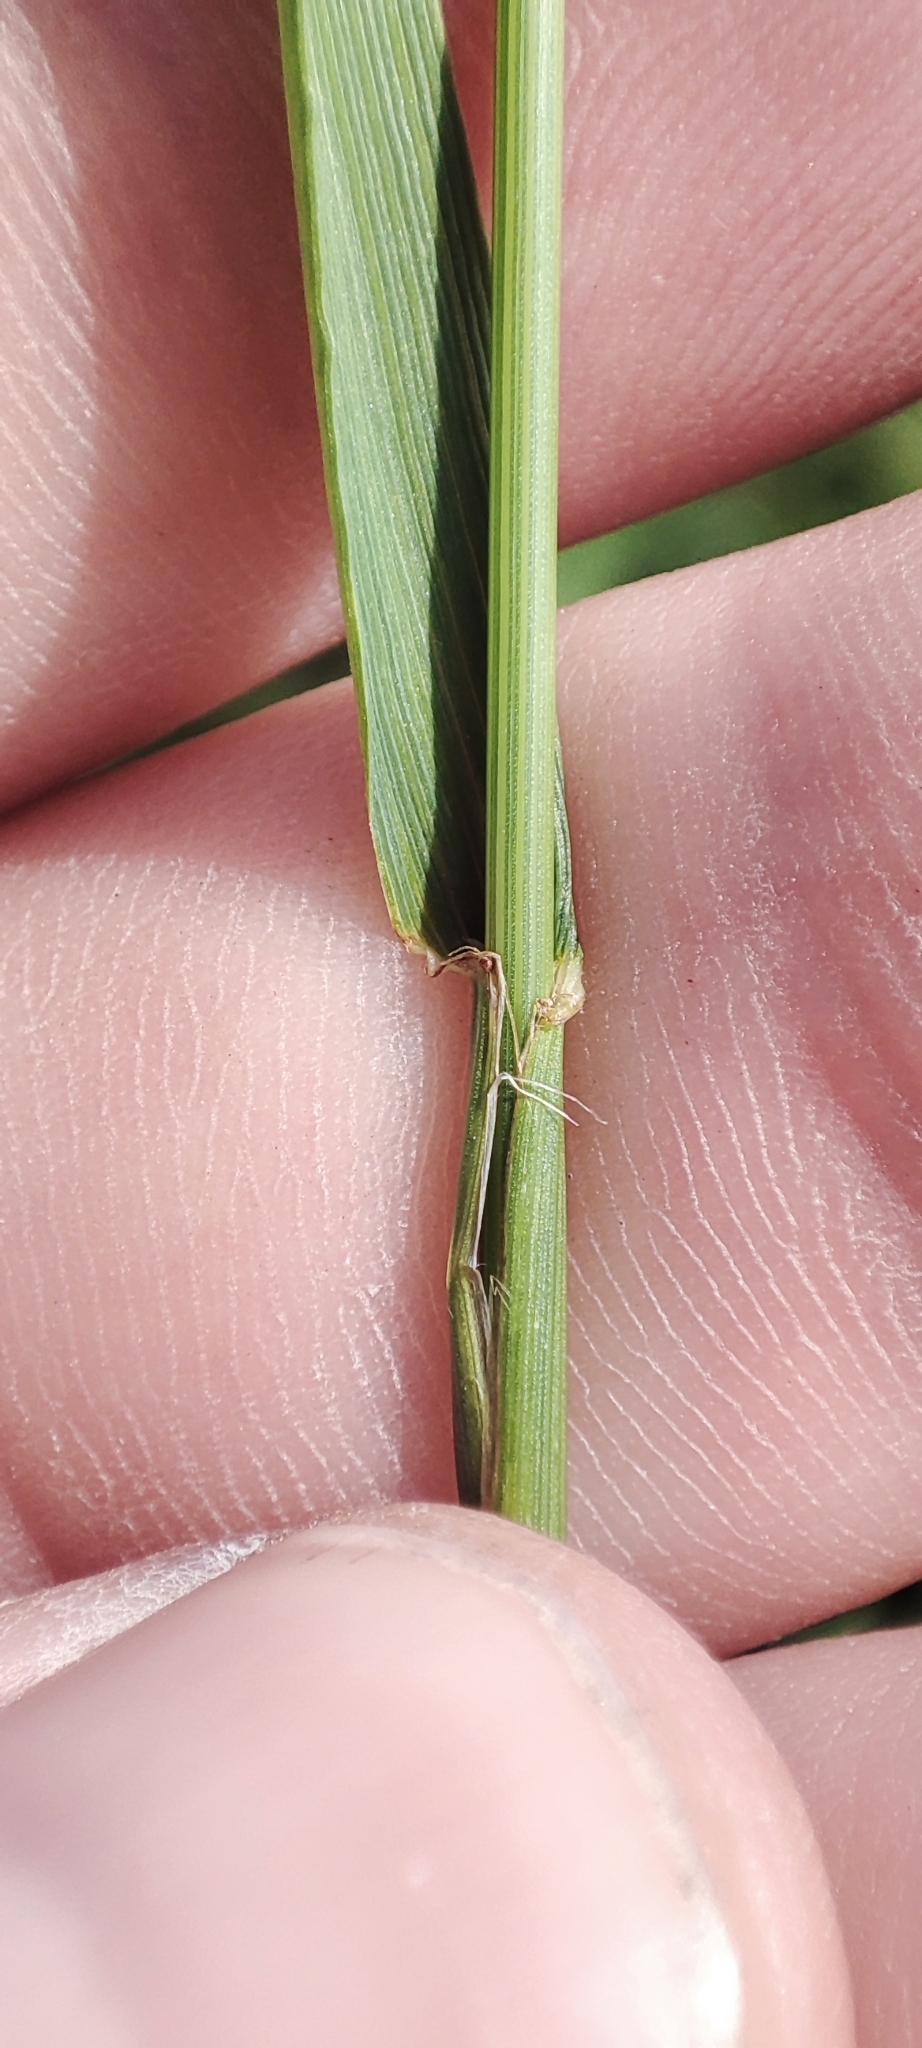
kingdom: Plantae
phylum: Tracheophyta
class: Liliopsida
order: Poales
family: Poaceae
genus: Lolium
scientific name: Lolium pratense
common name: Dover grass
